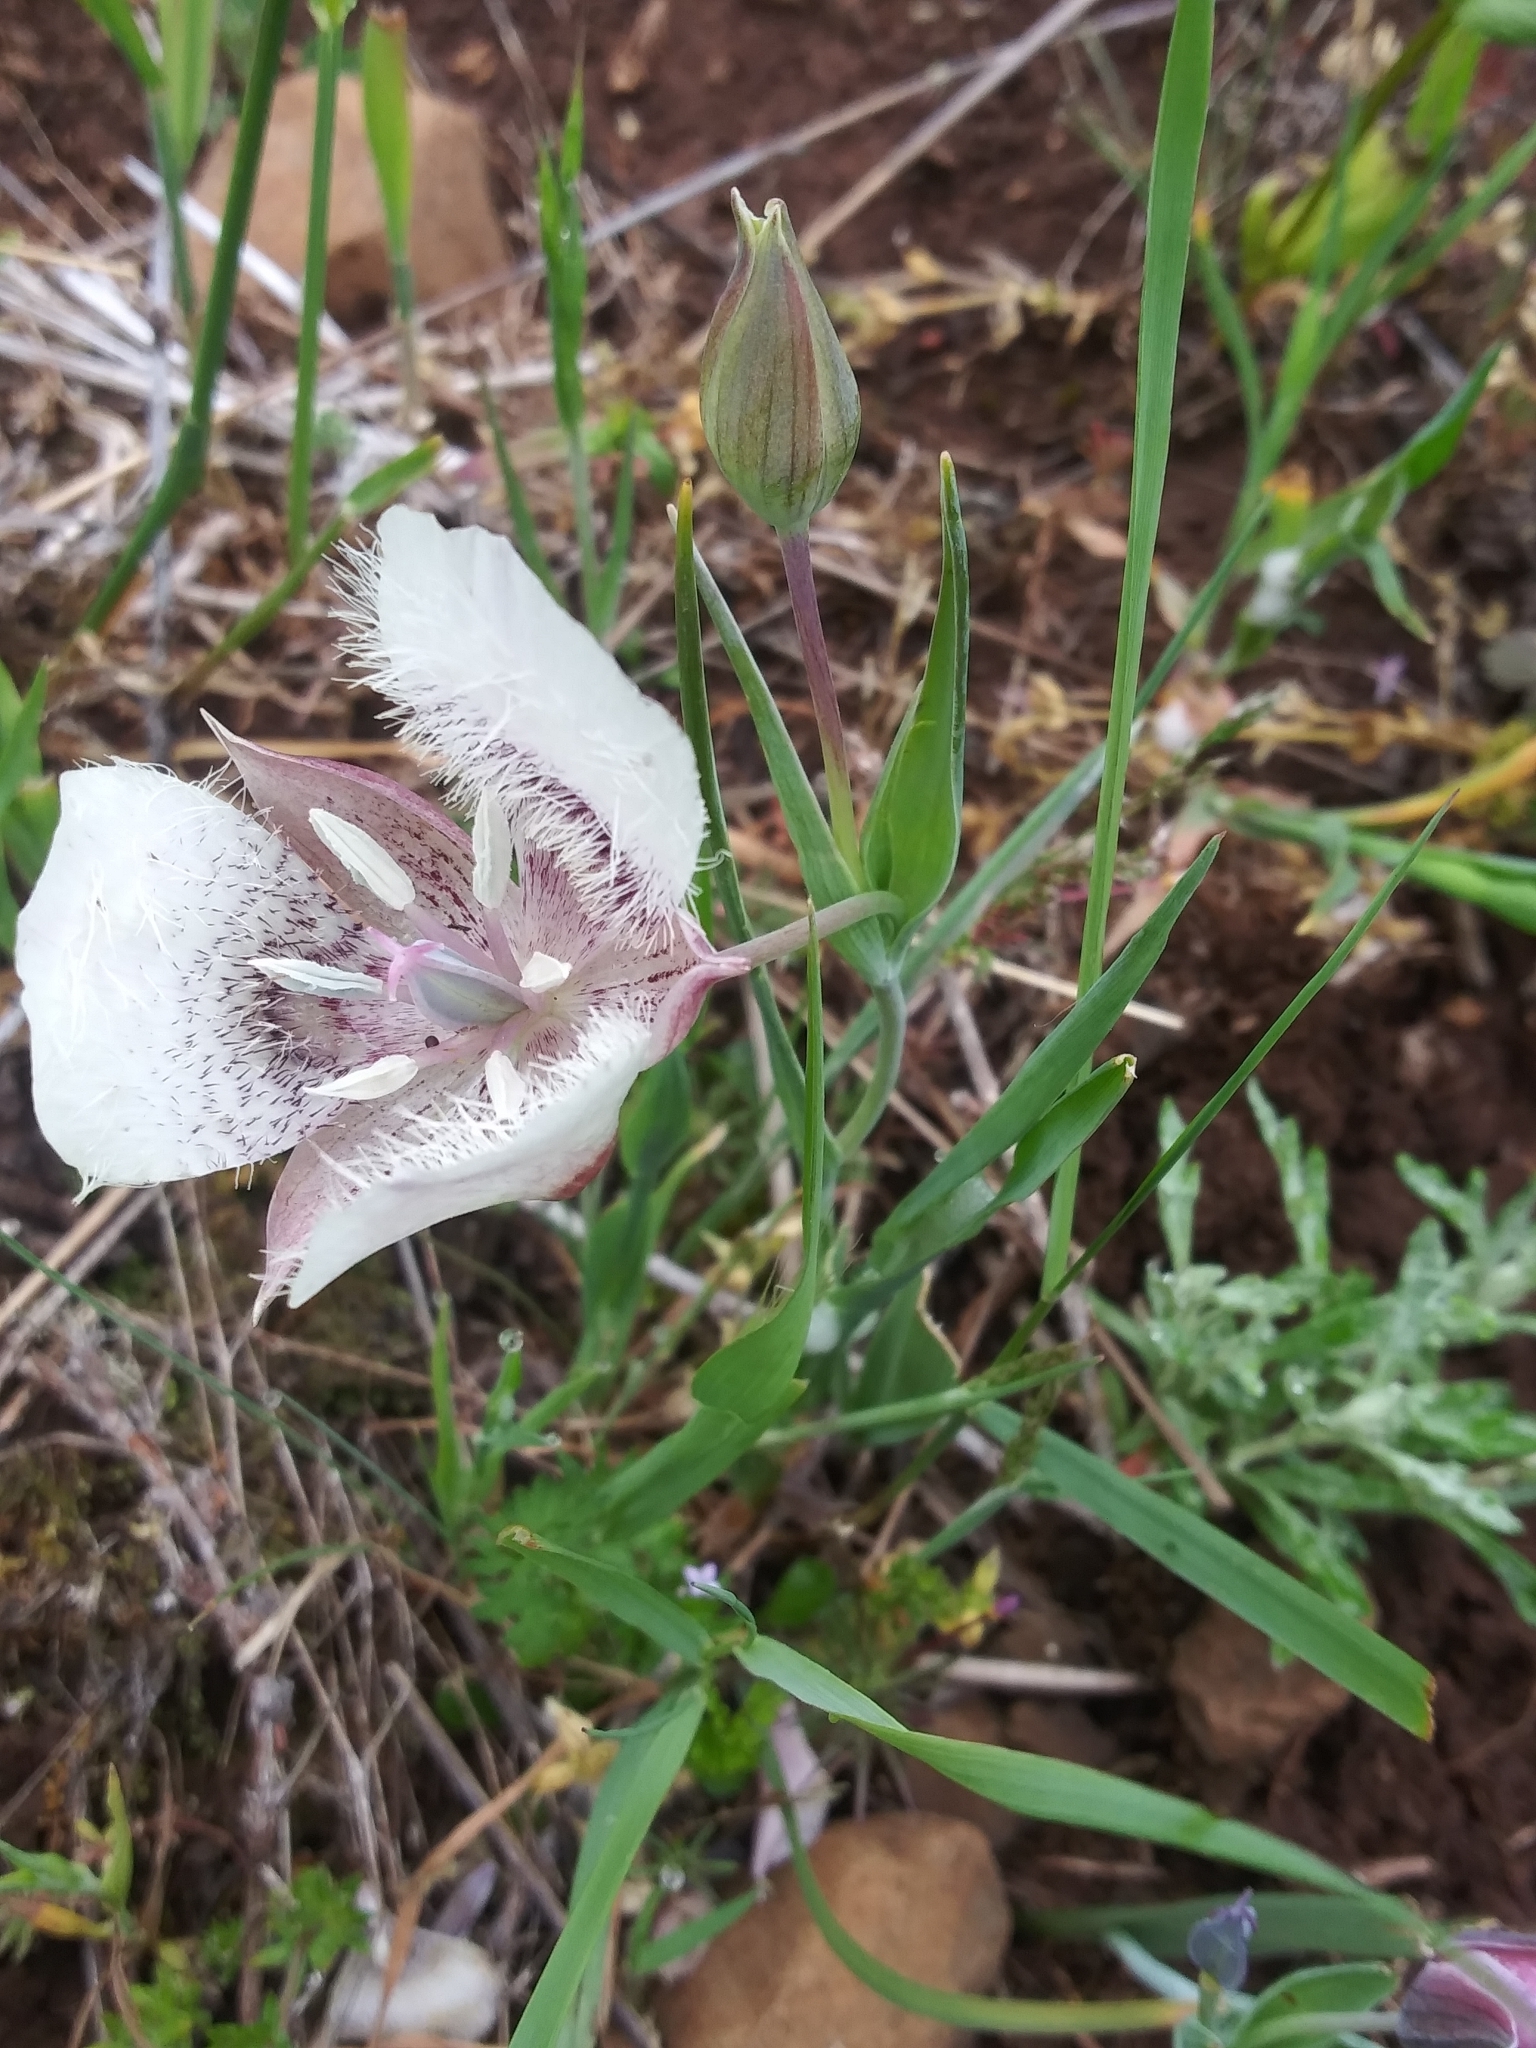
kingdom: Plantae
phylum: Tracheophyta
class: Liliopsida
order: Liliales
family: Liliaceae
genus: Calochortus
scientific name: Calochortus tolmiei
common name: Pussy-ears
